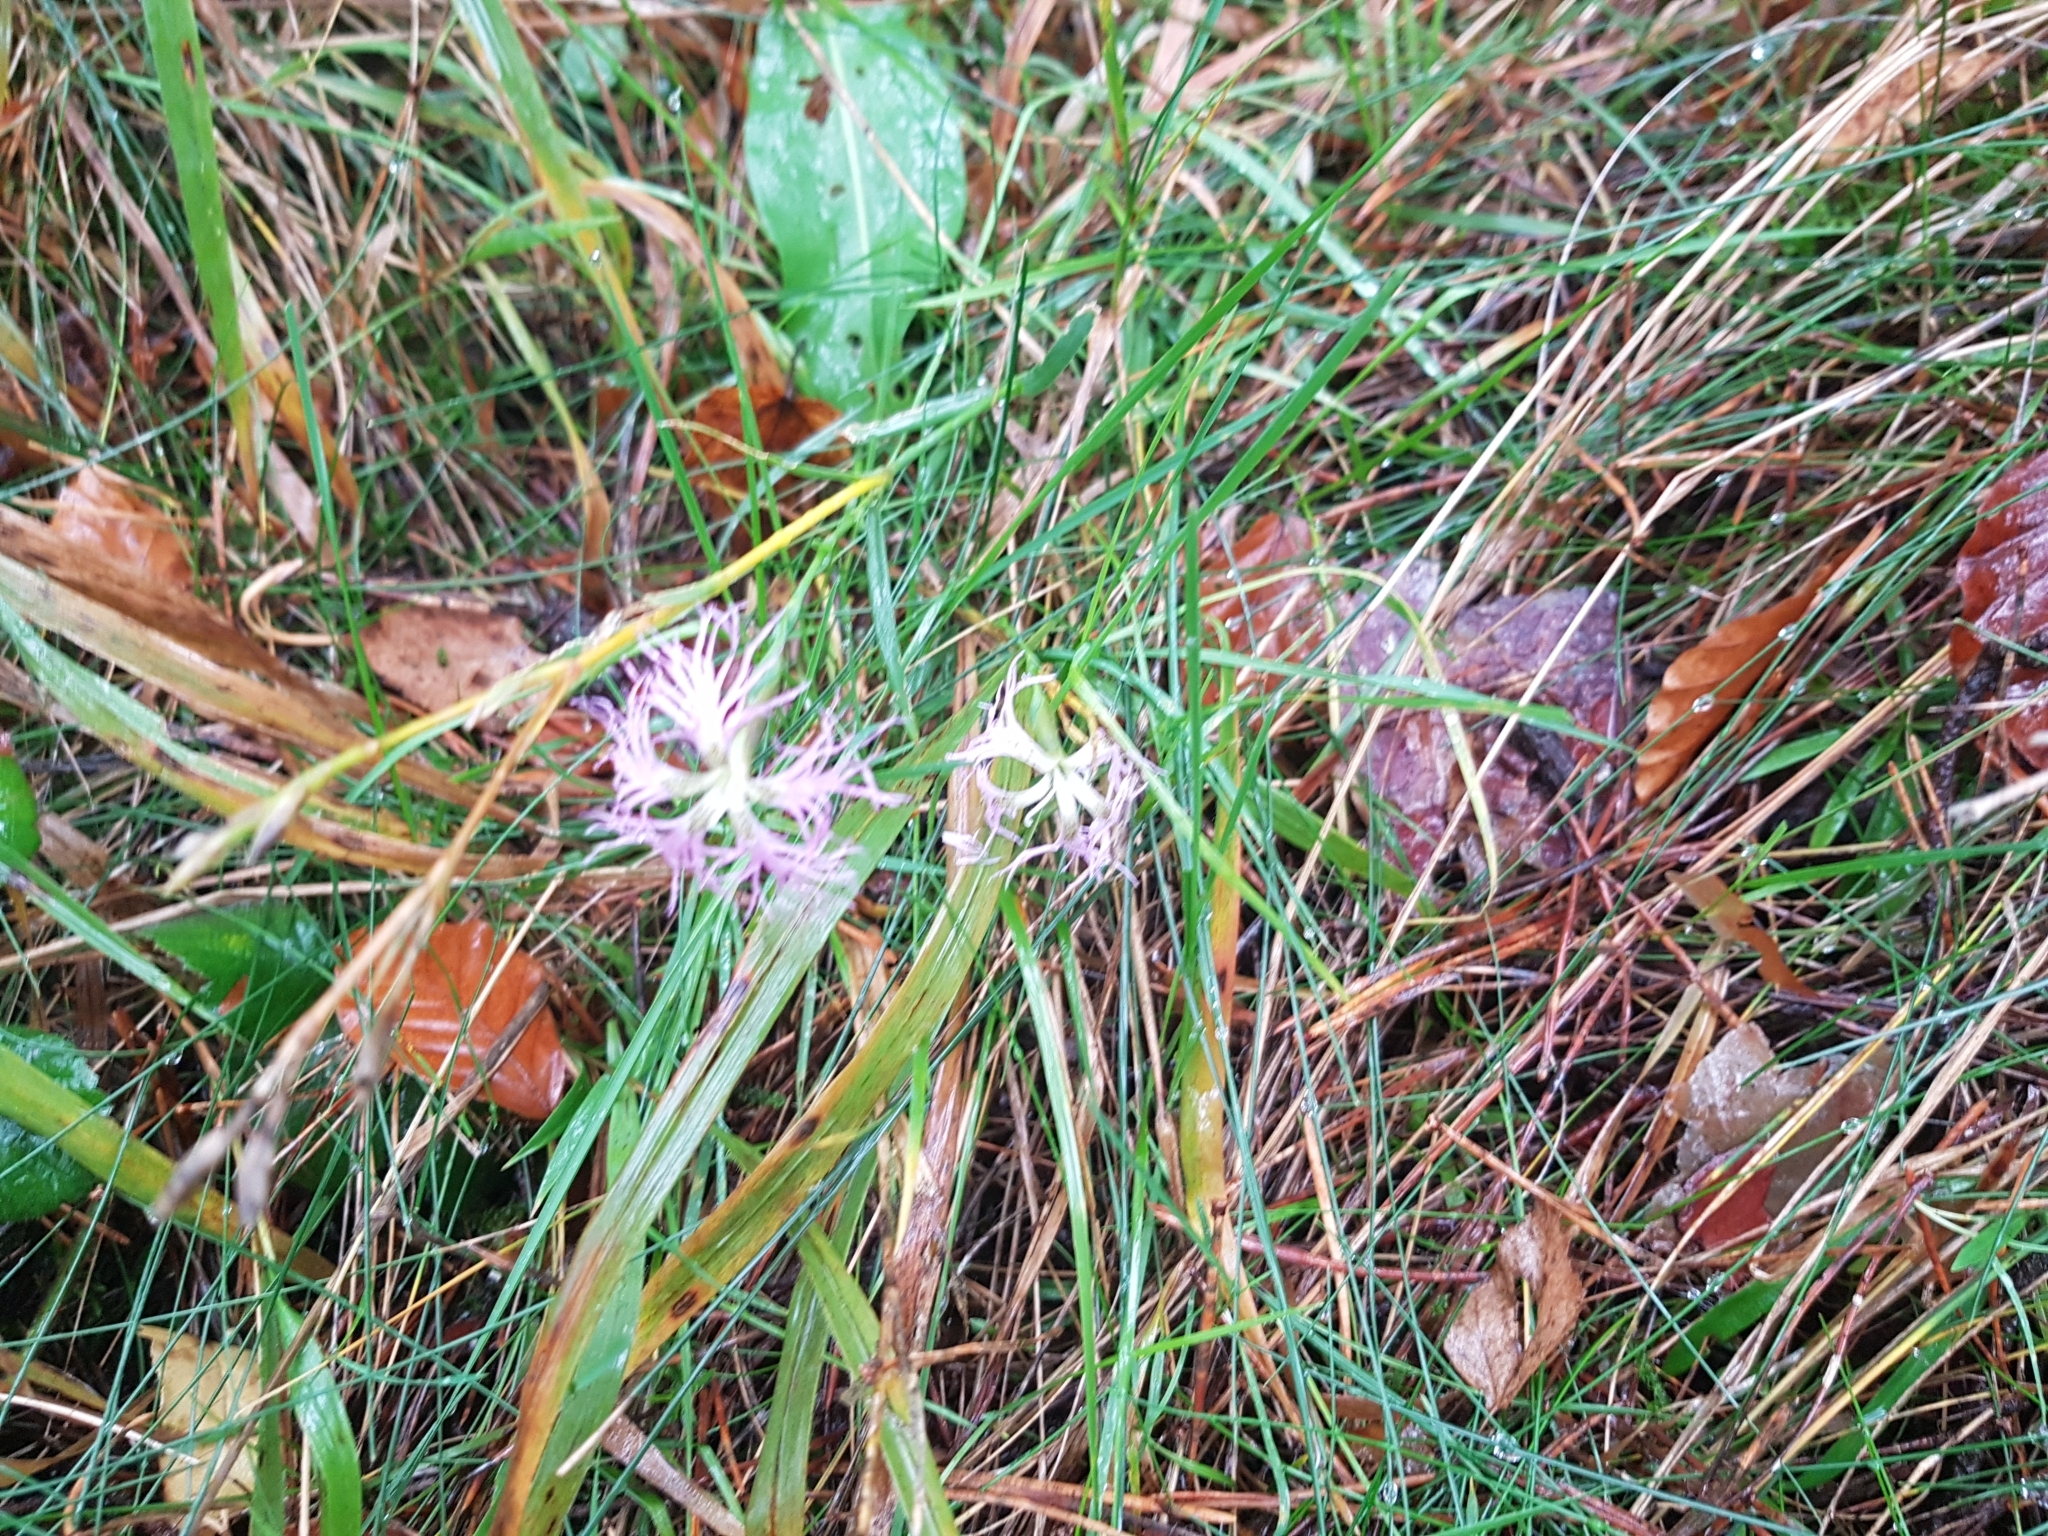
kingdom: Plantae
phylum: Tracheophyta
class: Magnoliopsida
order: Caryophyllales
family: Caryophyllaceae
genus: Dianthus
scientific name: Dianthus superbus
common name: Fringed pink
